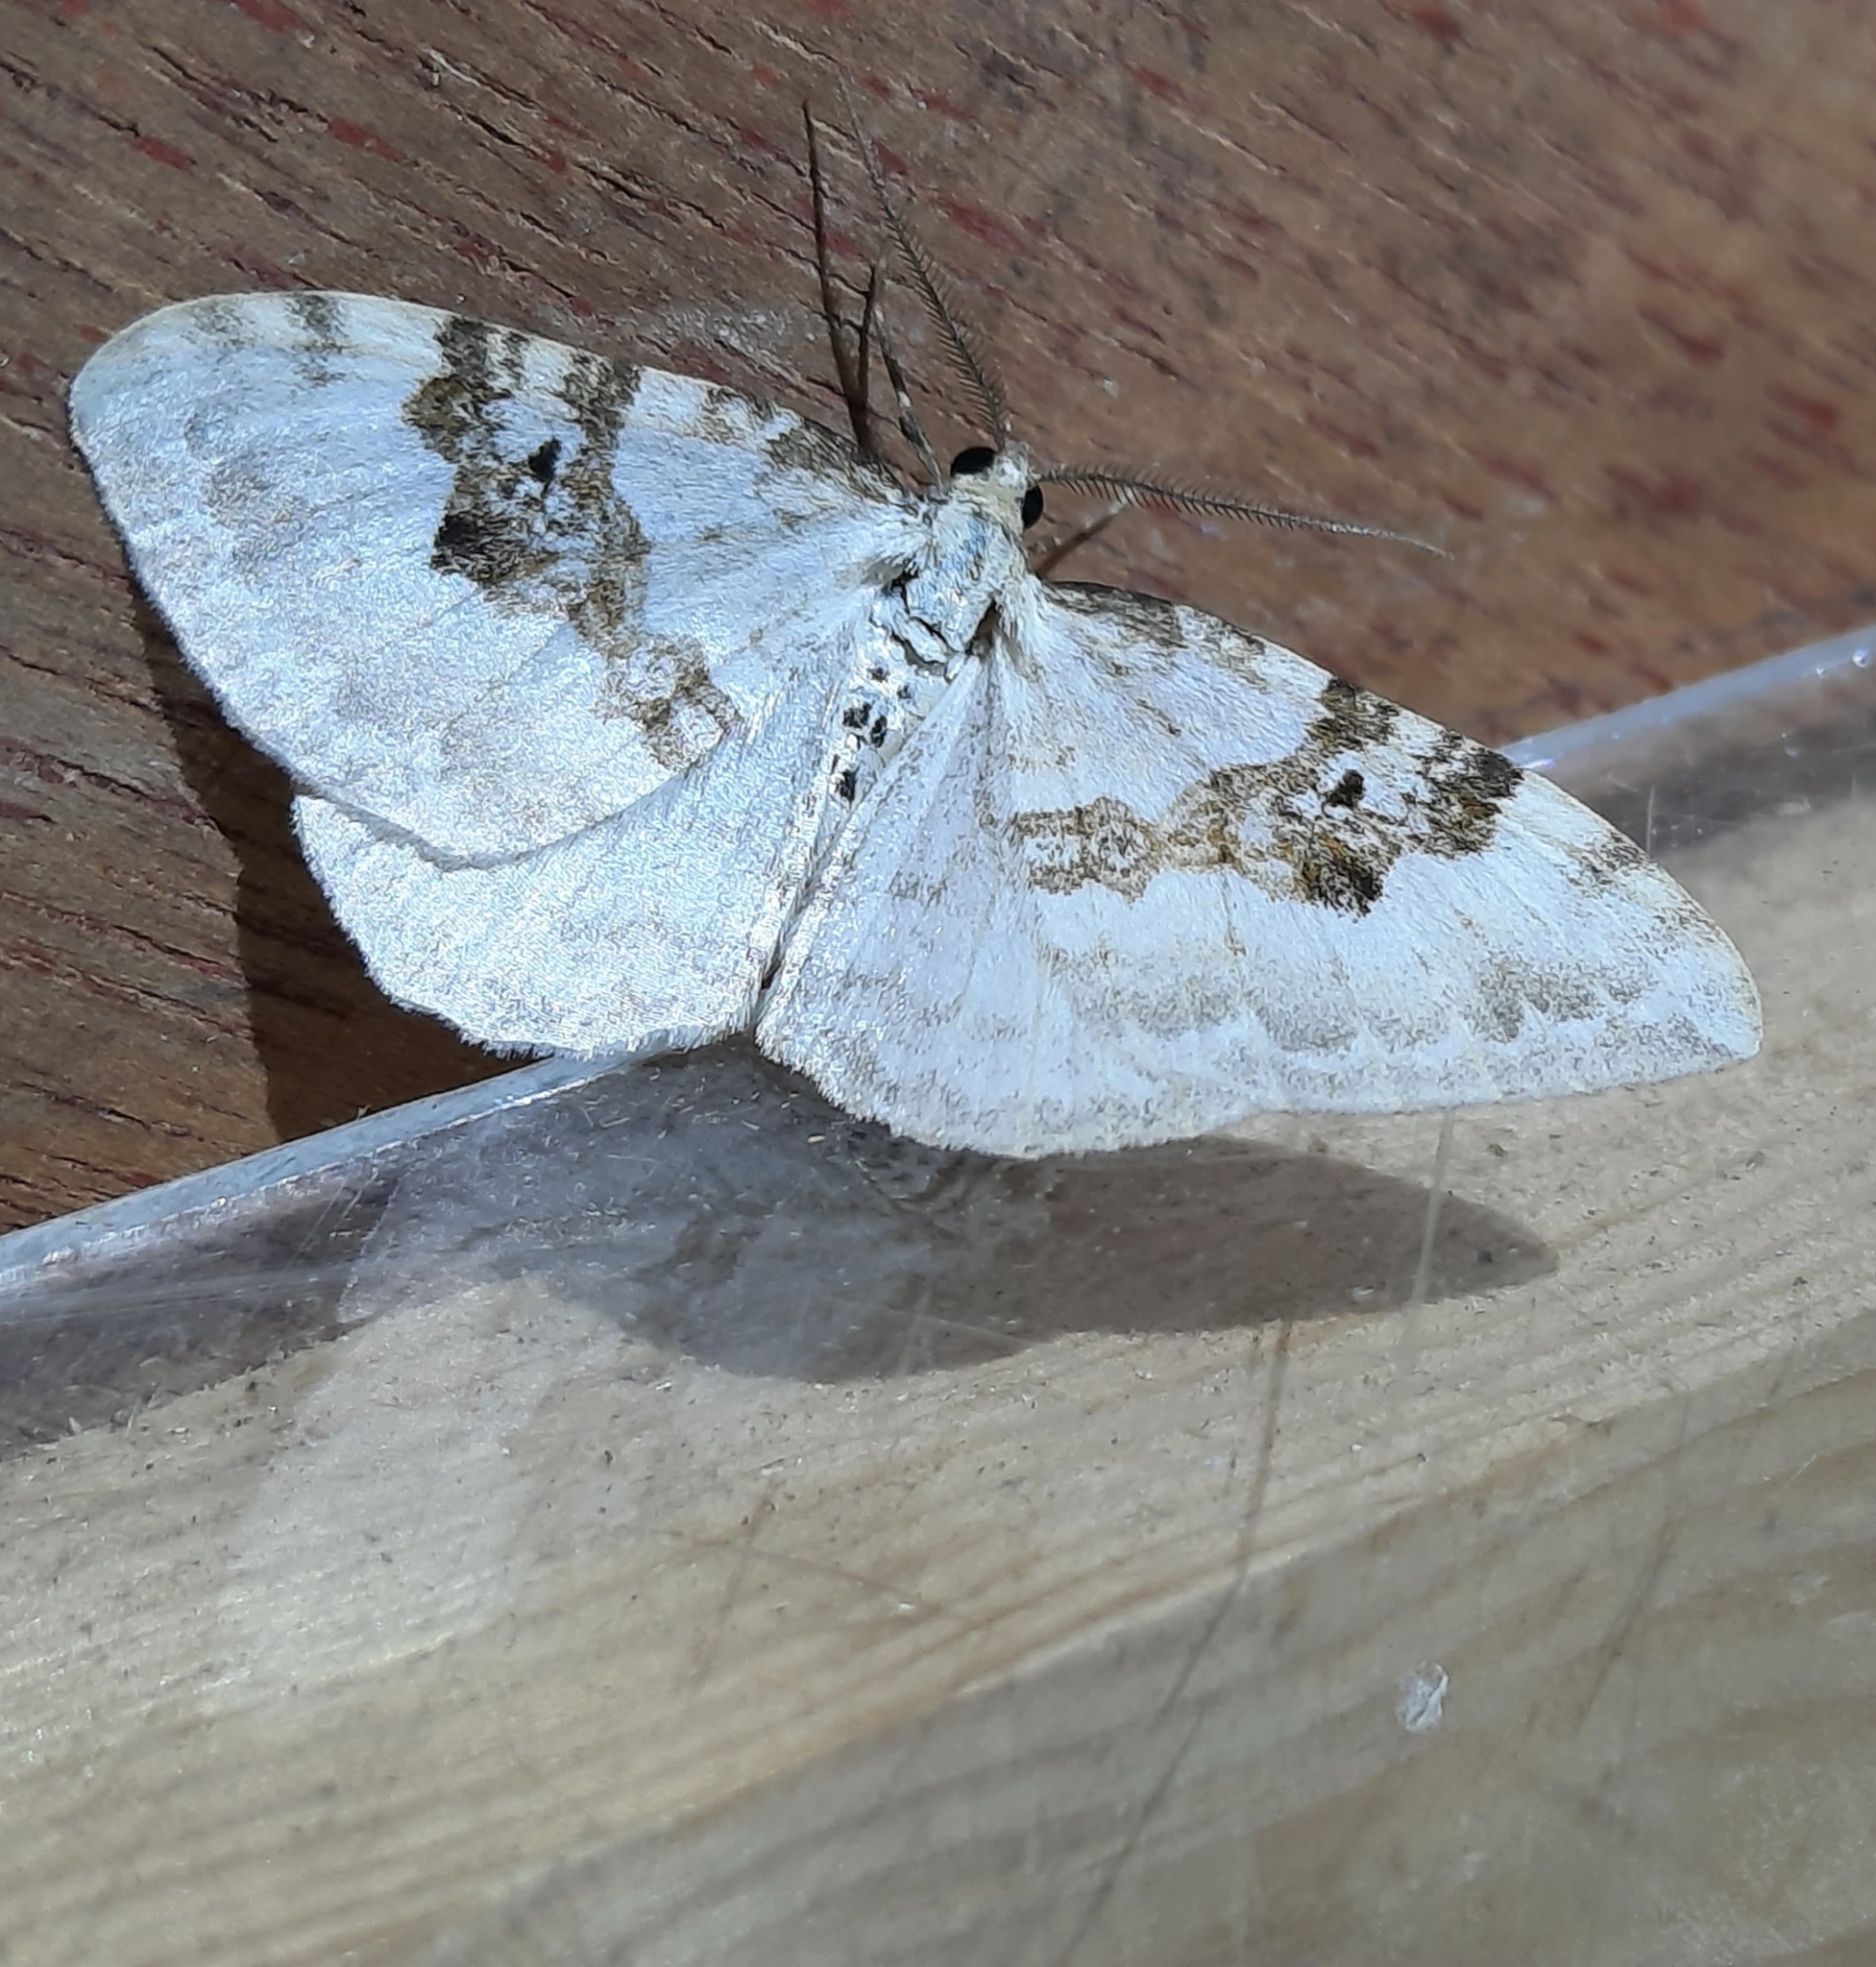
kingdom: Animalia
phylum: Arthropoda
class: Insecta
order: Lepidoptera
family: Geometridae
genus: Xanthorhoe
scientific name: Xanthorhoe montanata
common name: Silver-ground carpet
